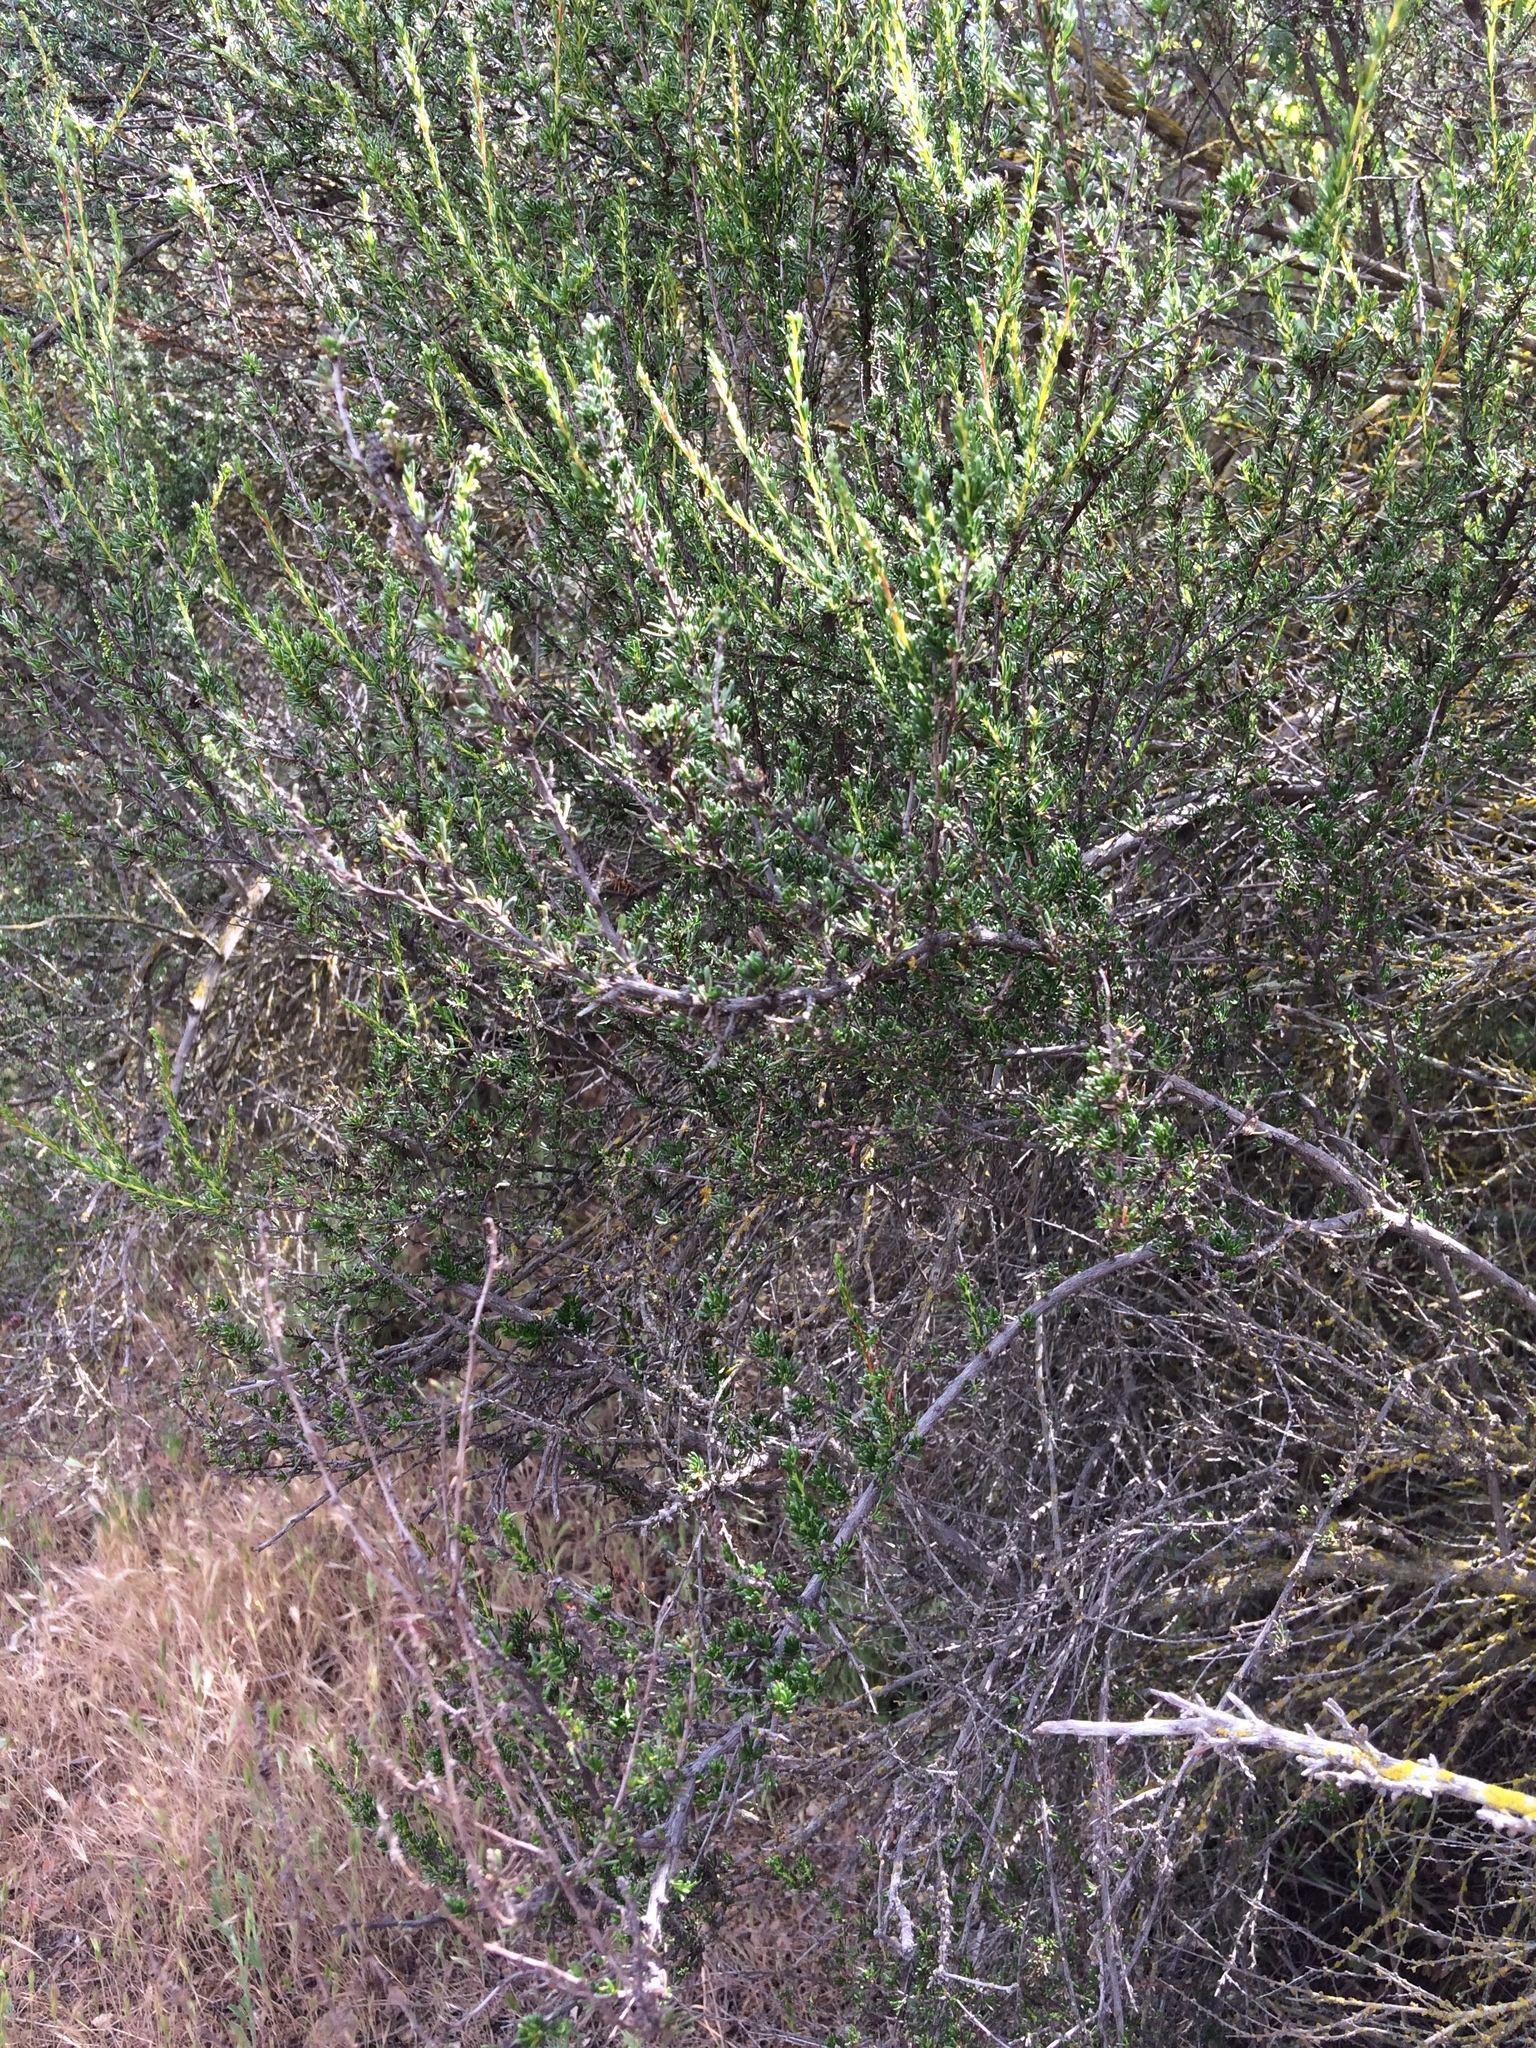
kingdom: Plantae
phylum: Tracheophyta
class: Magnoliopsida
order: Rosales
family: Rosaceae
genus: Adenostoma
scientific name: Adenostoma fasciculatum
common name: Chamise
